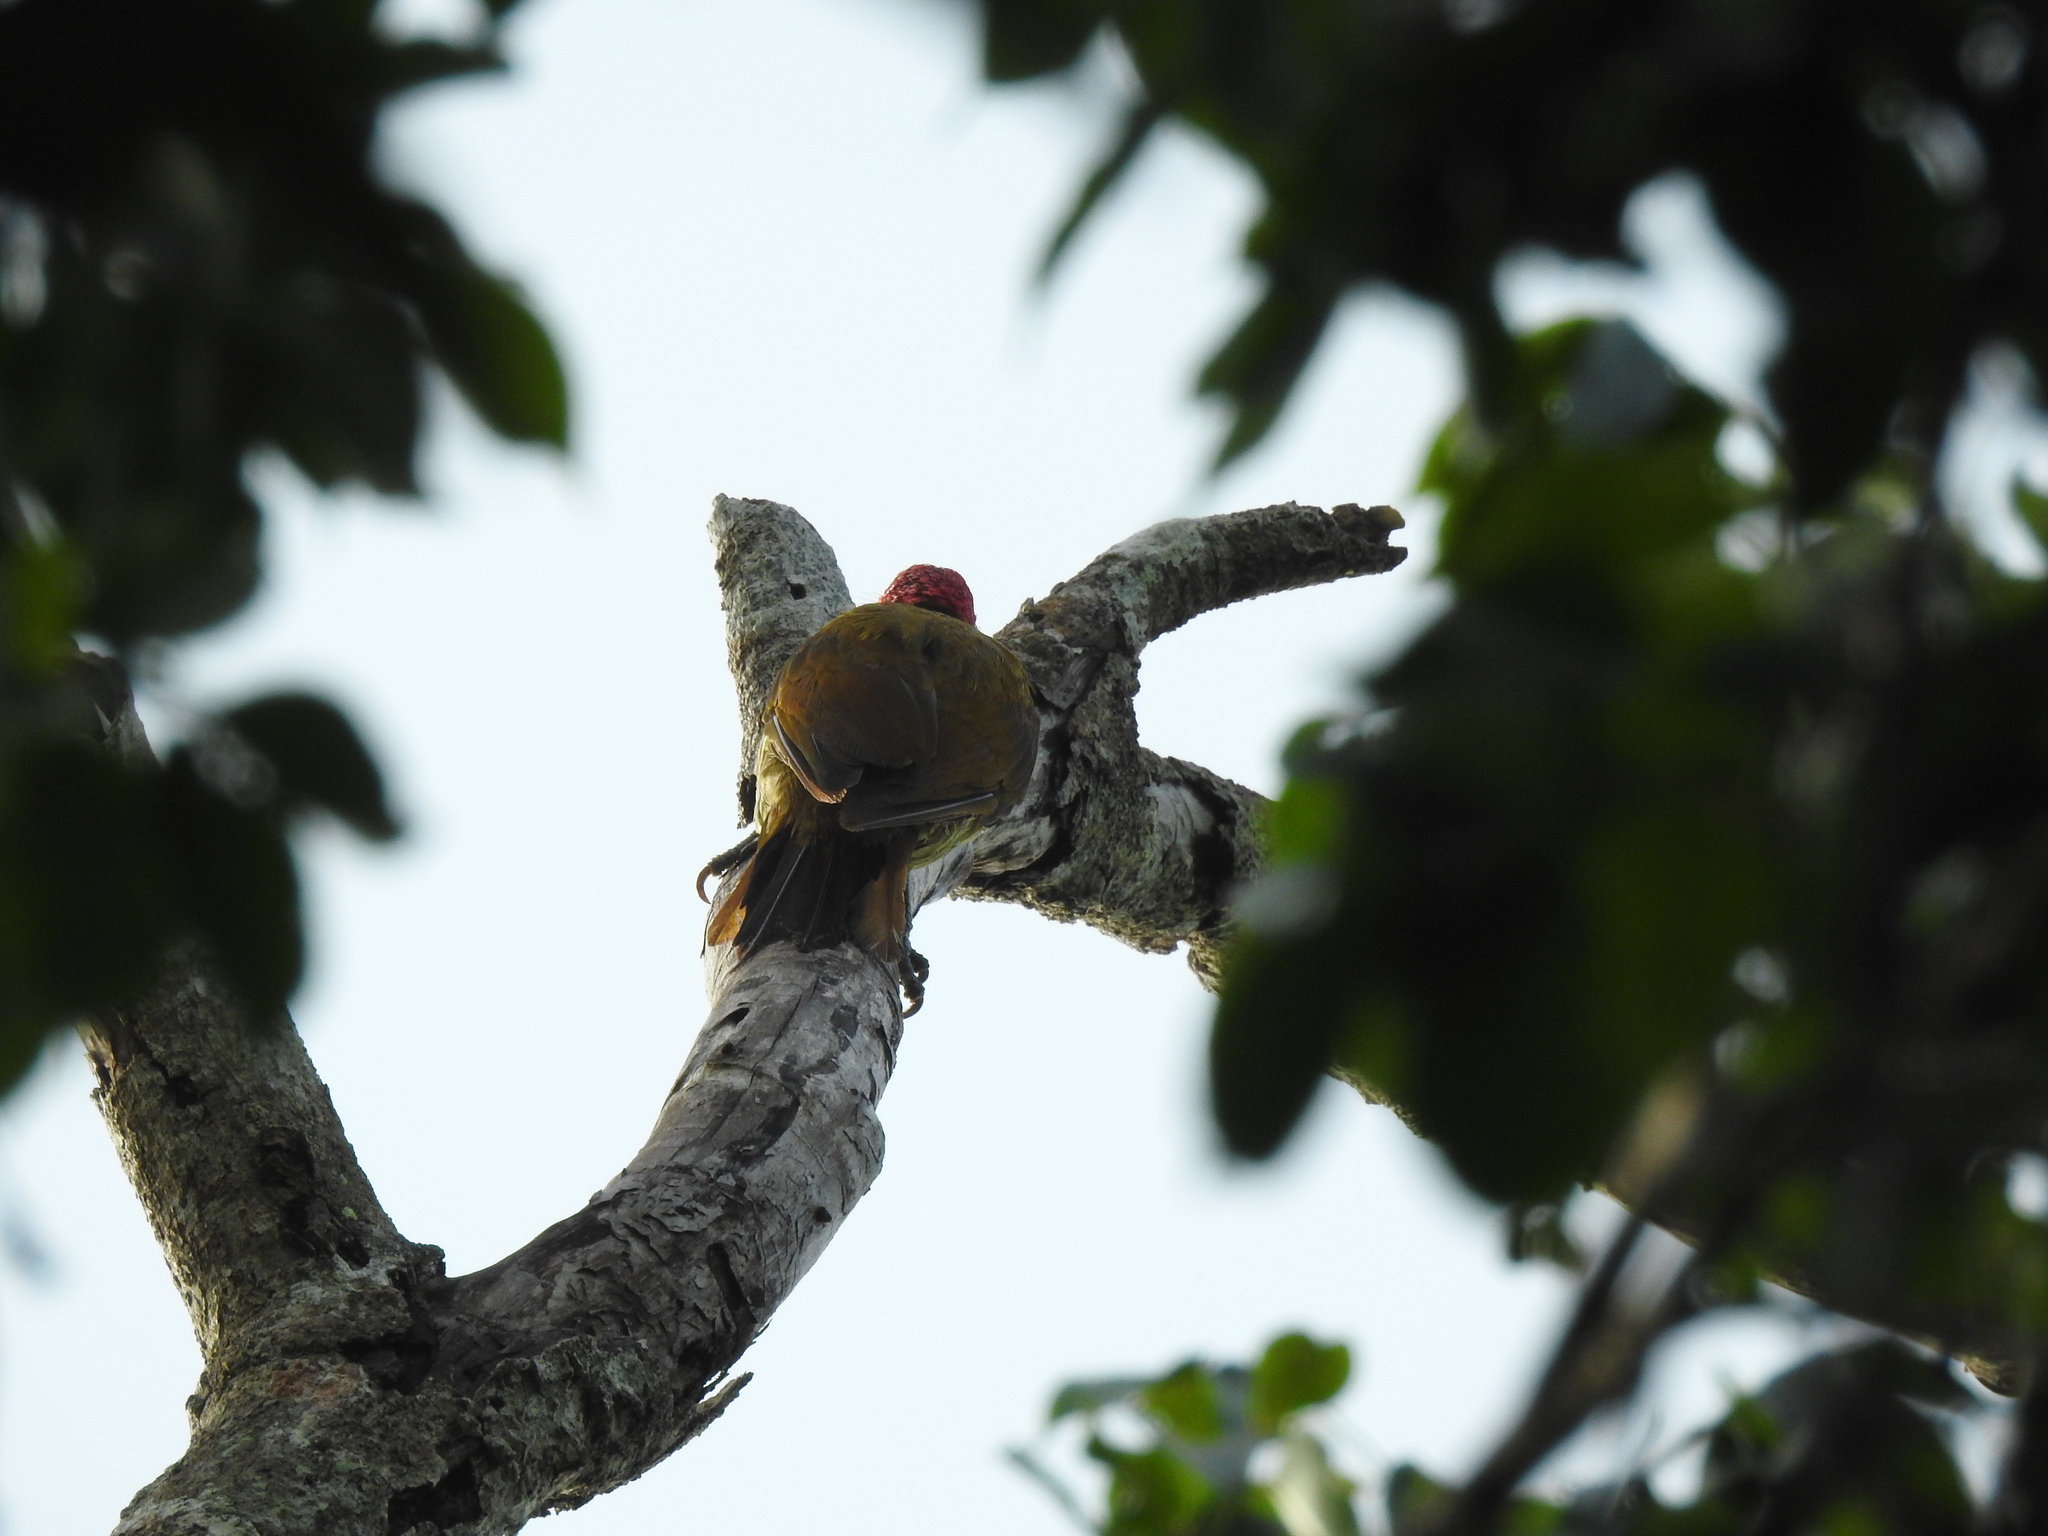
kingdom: Animalia
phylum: Chordata
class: Aves
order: Piciformes
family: Picidae
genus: Colaptes
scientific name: Colaptes rubiginosus
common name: Golden-olive woodpecker
